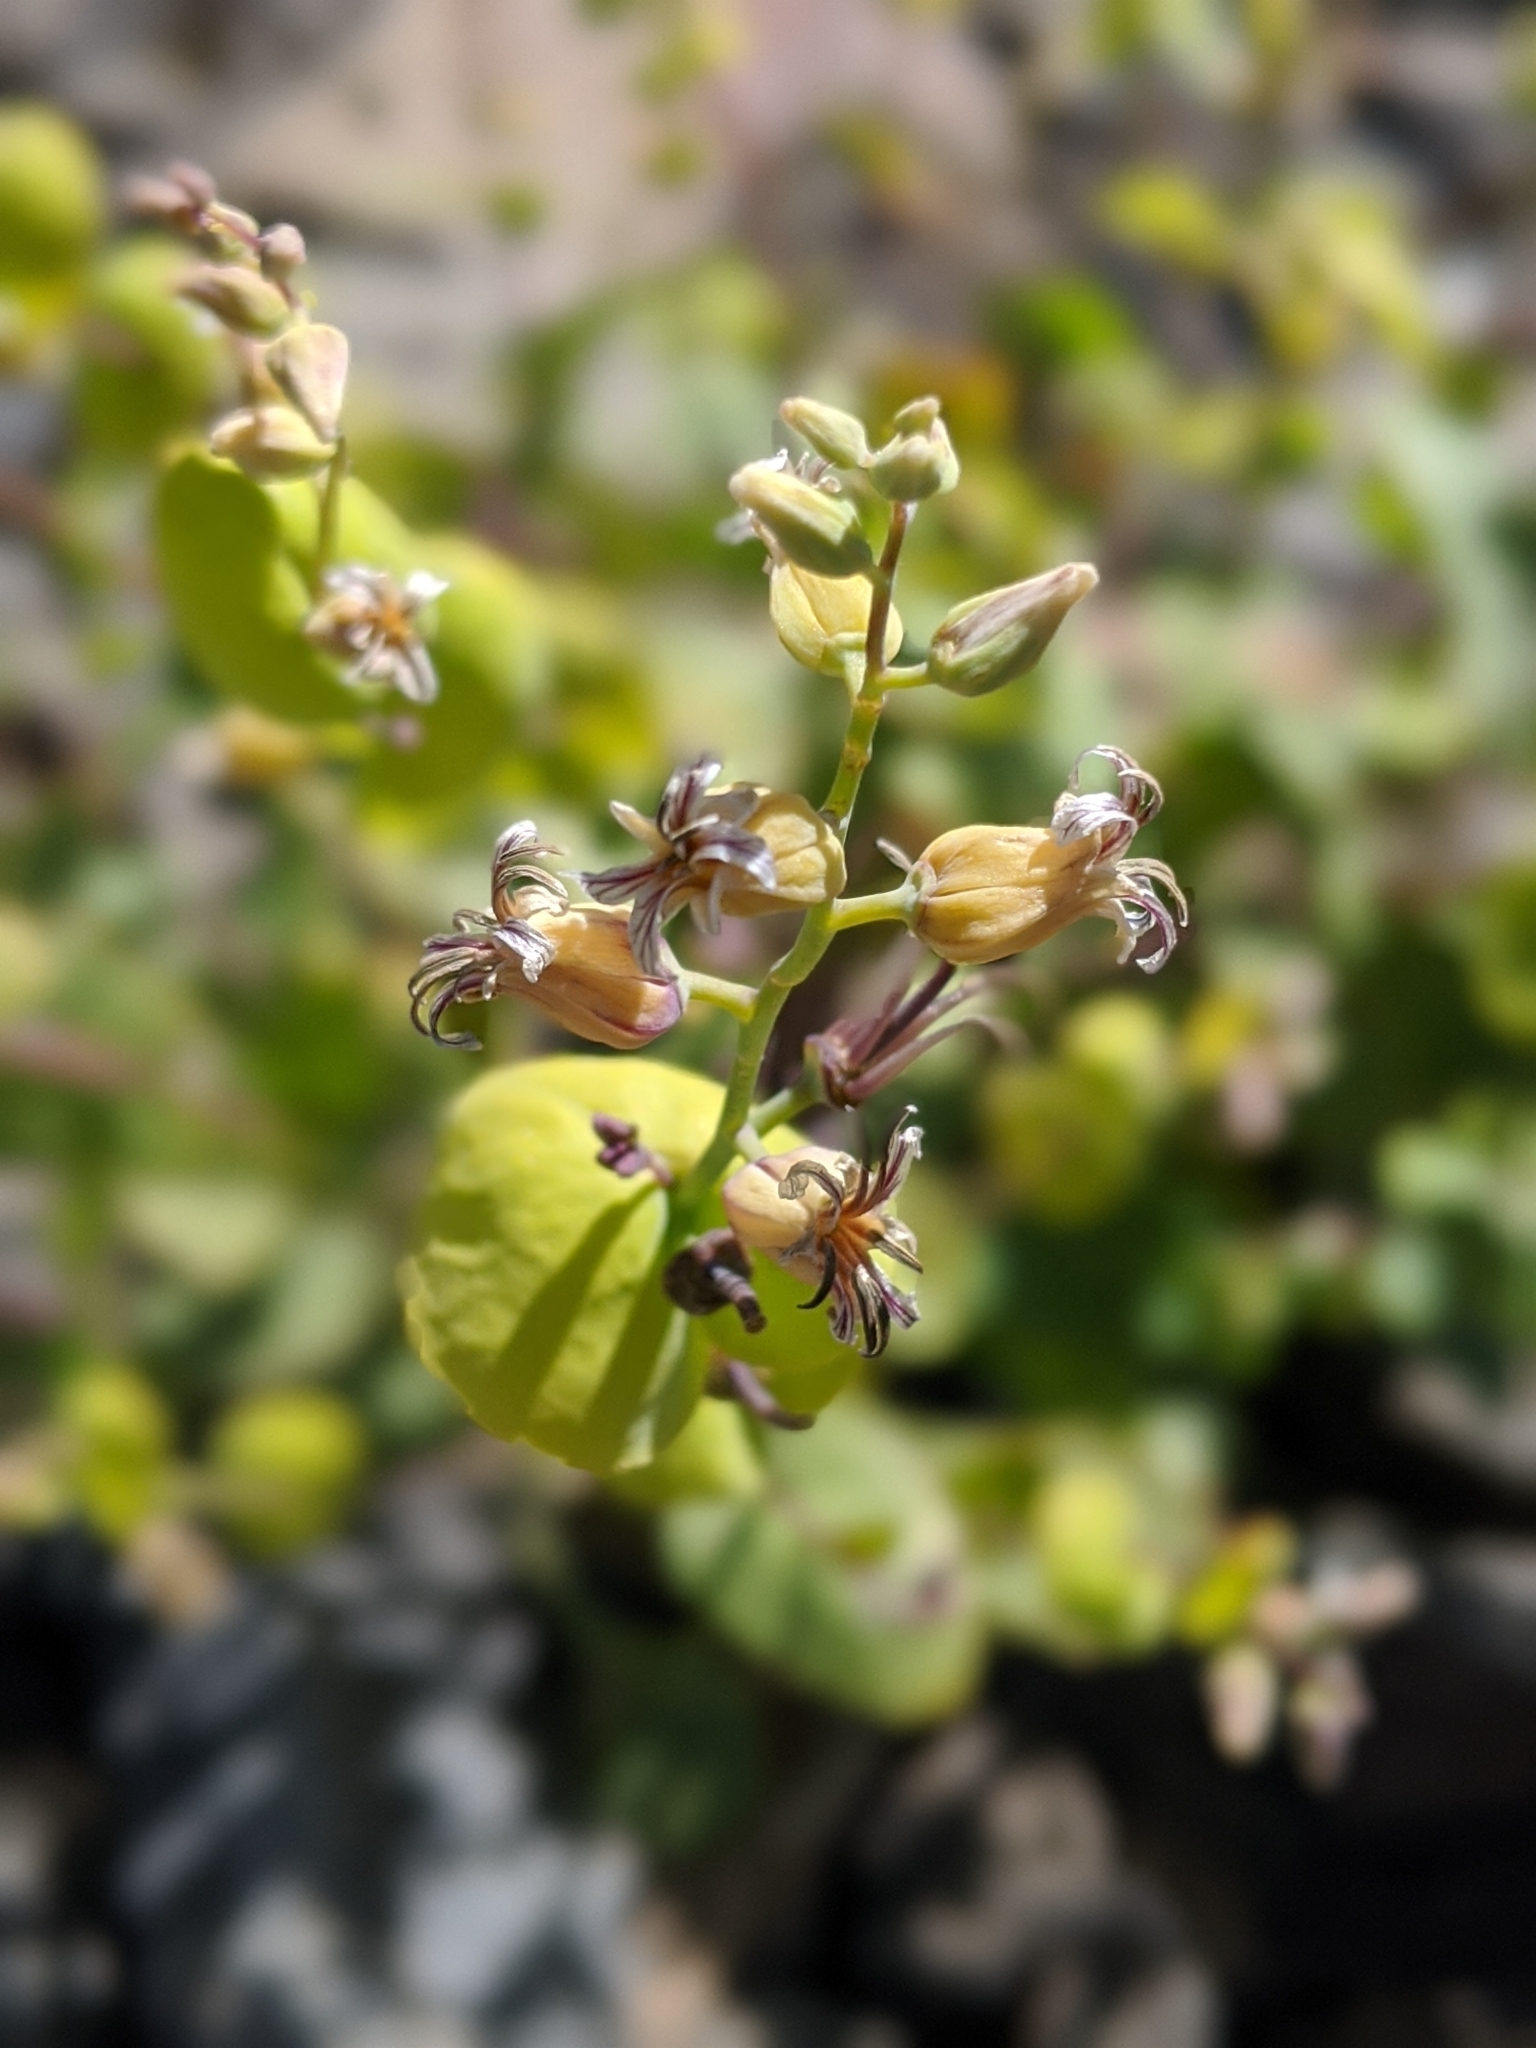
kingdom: Plantae
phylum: Tracheophyta
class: Magnoliopsida
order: Brassicales
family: Brassicaceae
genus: Streptanthus
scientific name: Streptanthus tortuosus
